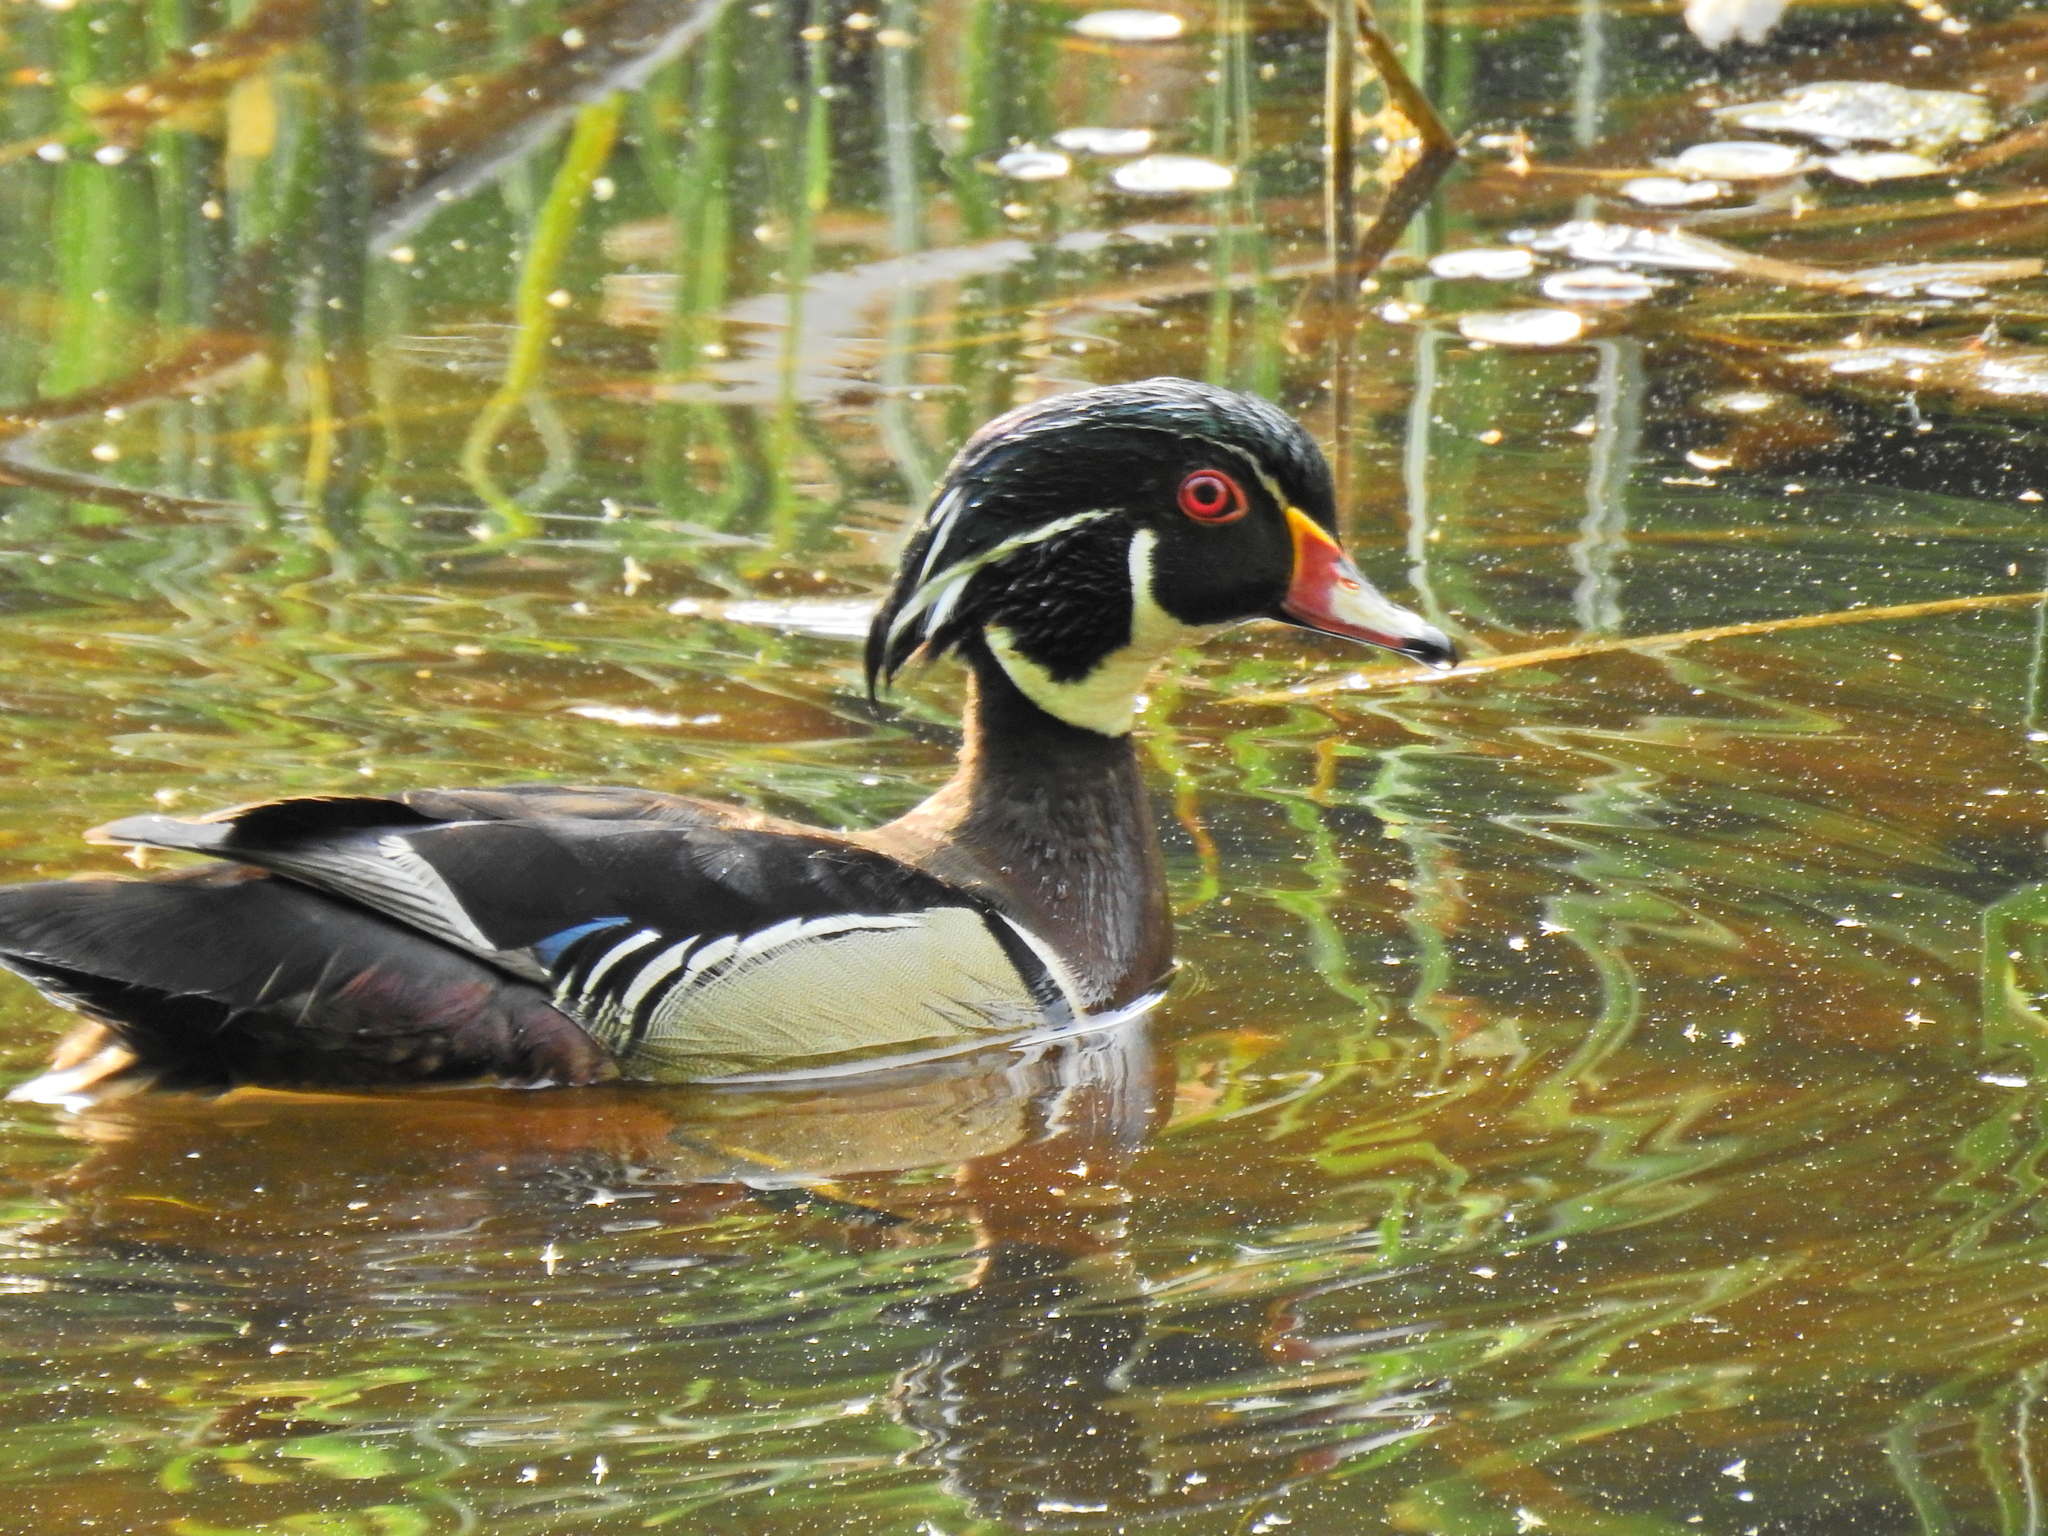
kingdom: Animalia
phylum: Chordata
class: Aves
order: Anseriformes
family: Anatidae
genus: Aix
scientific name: Aix sponsa
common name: Wood duck
